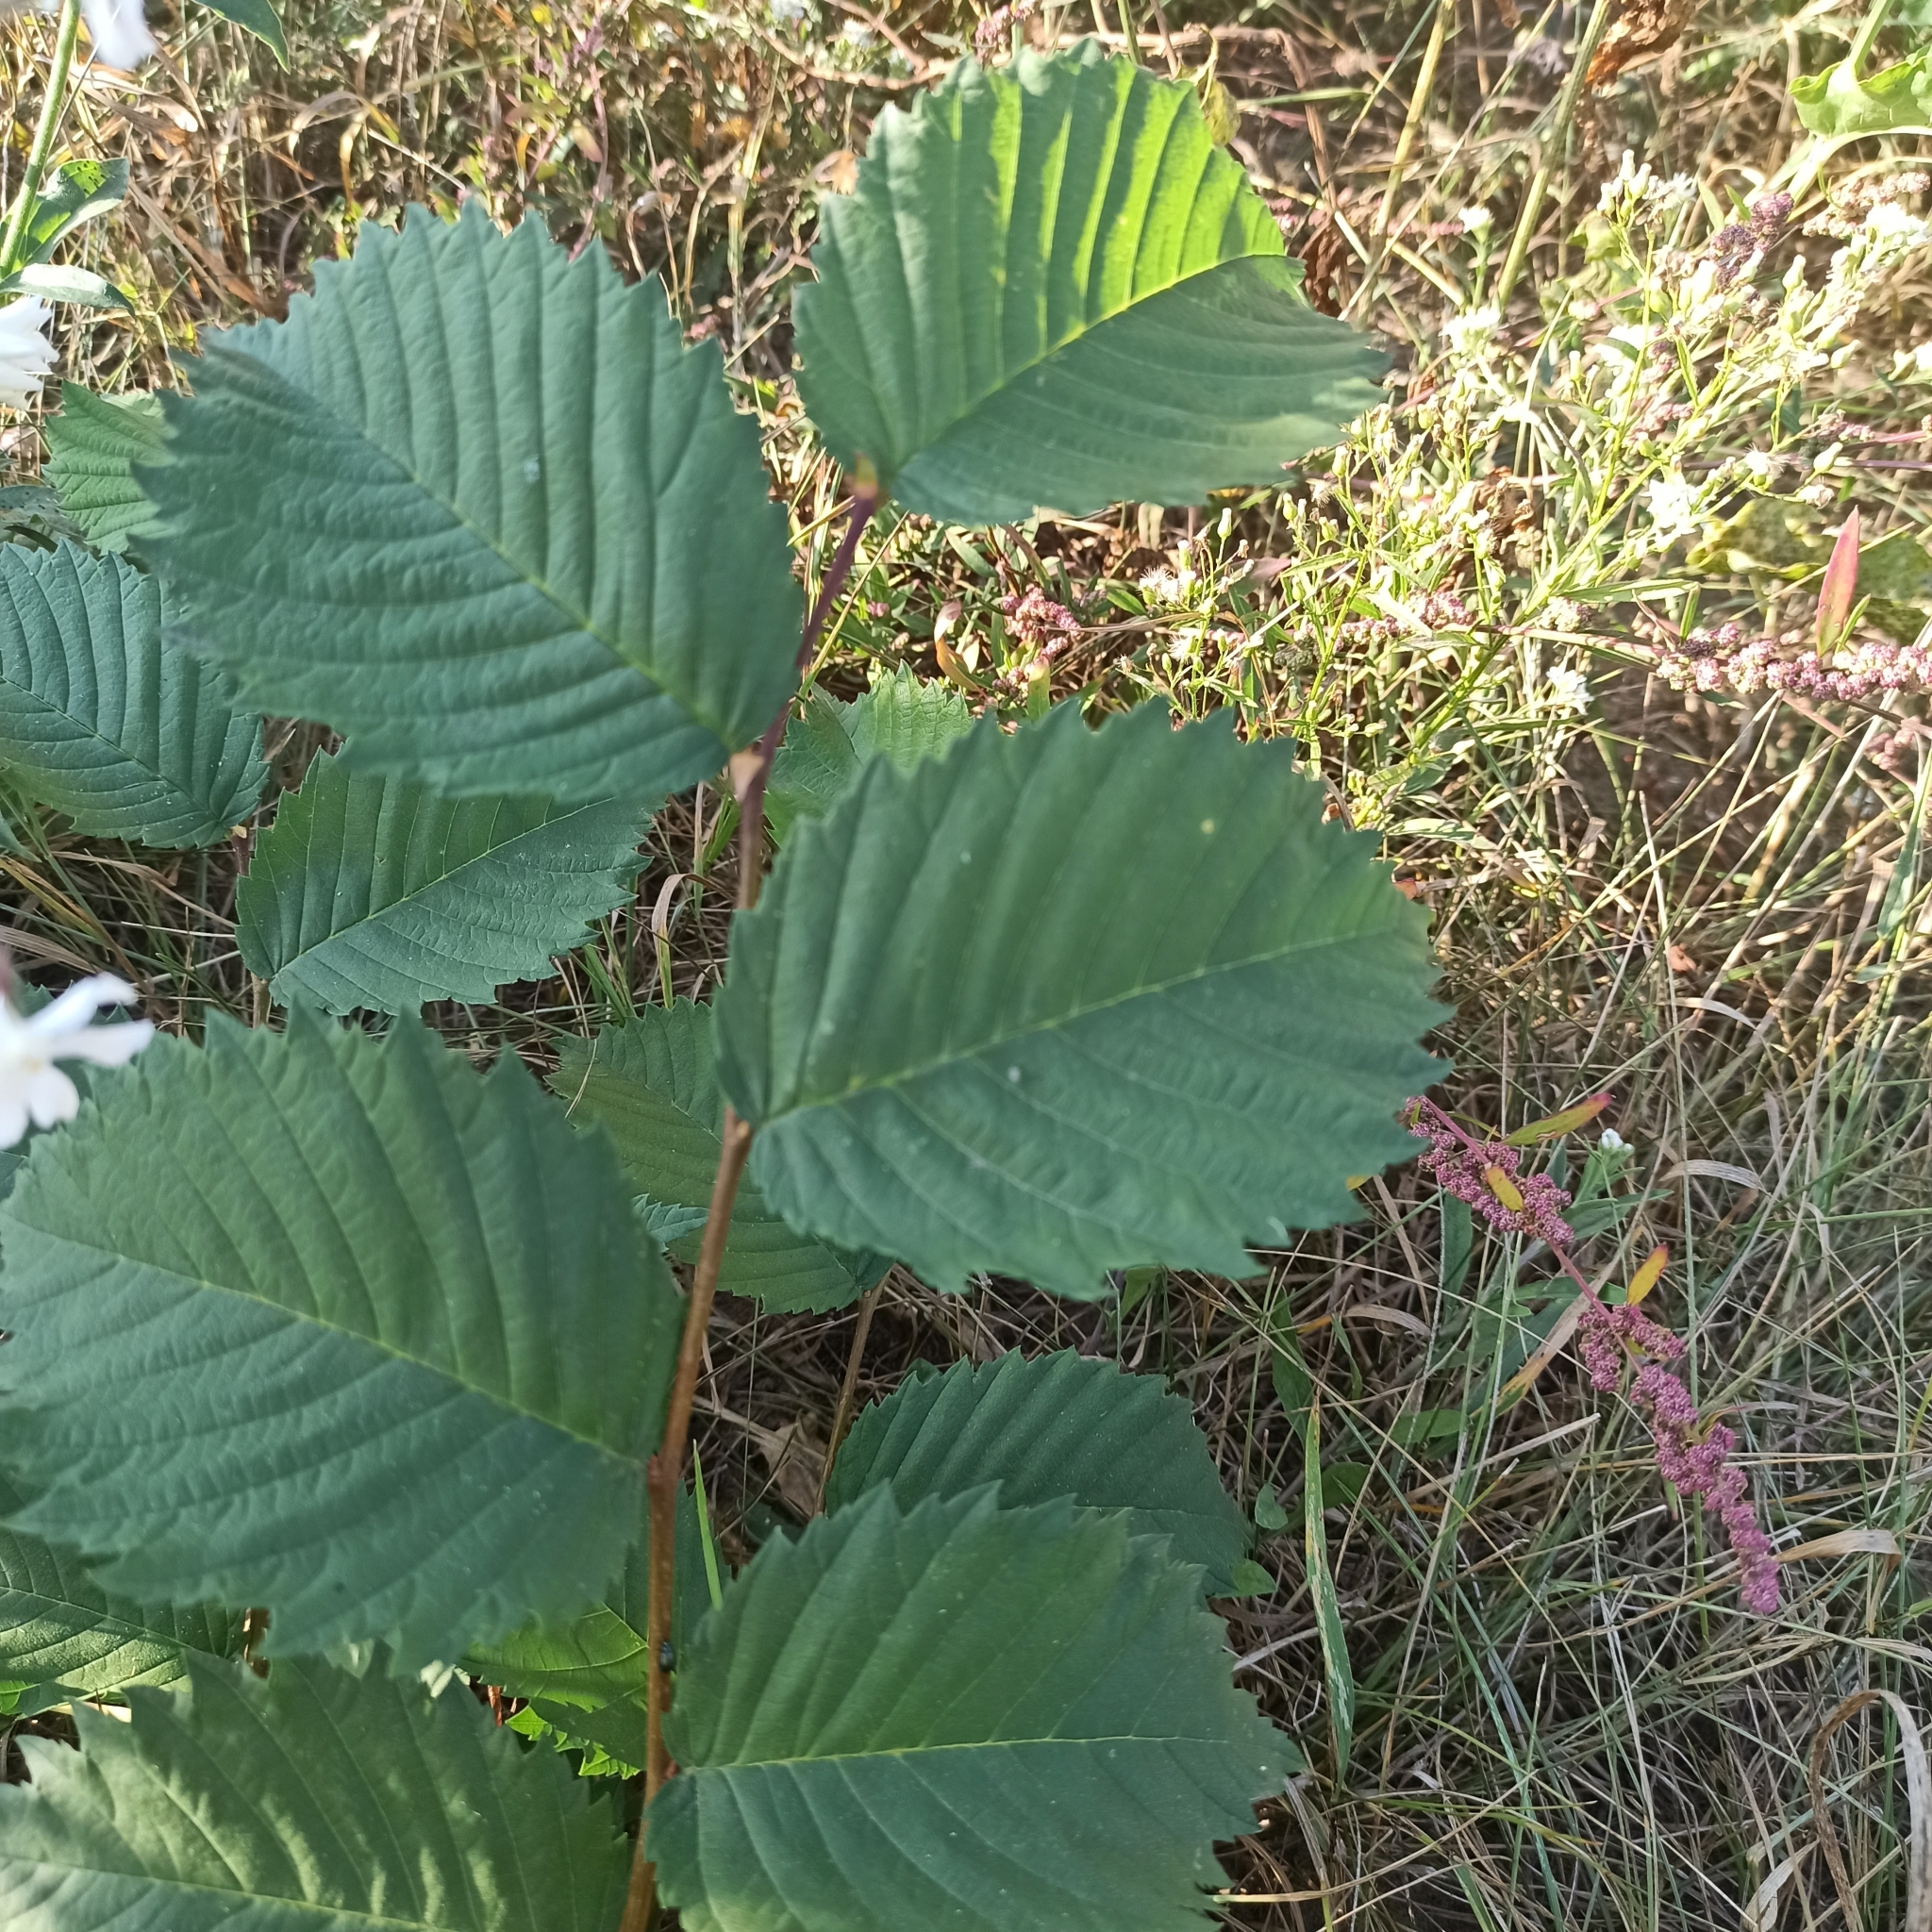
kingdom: Plantae
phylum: Tracheophyta
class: Magnoliopsida
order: Rosales
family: Ulmaceae
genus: Ulmus
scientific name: Ulmus laevis
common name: European white-elm
